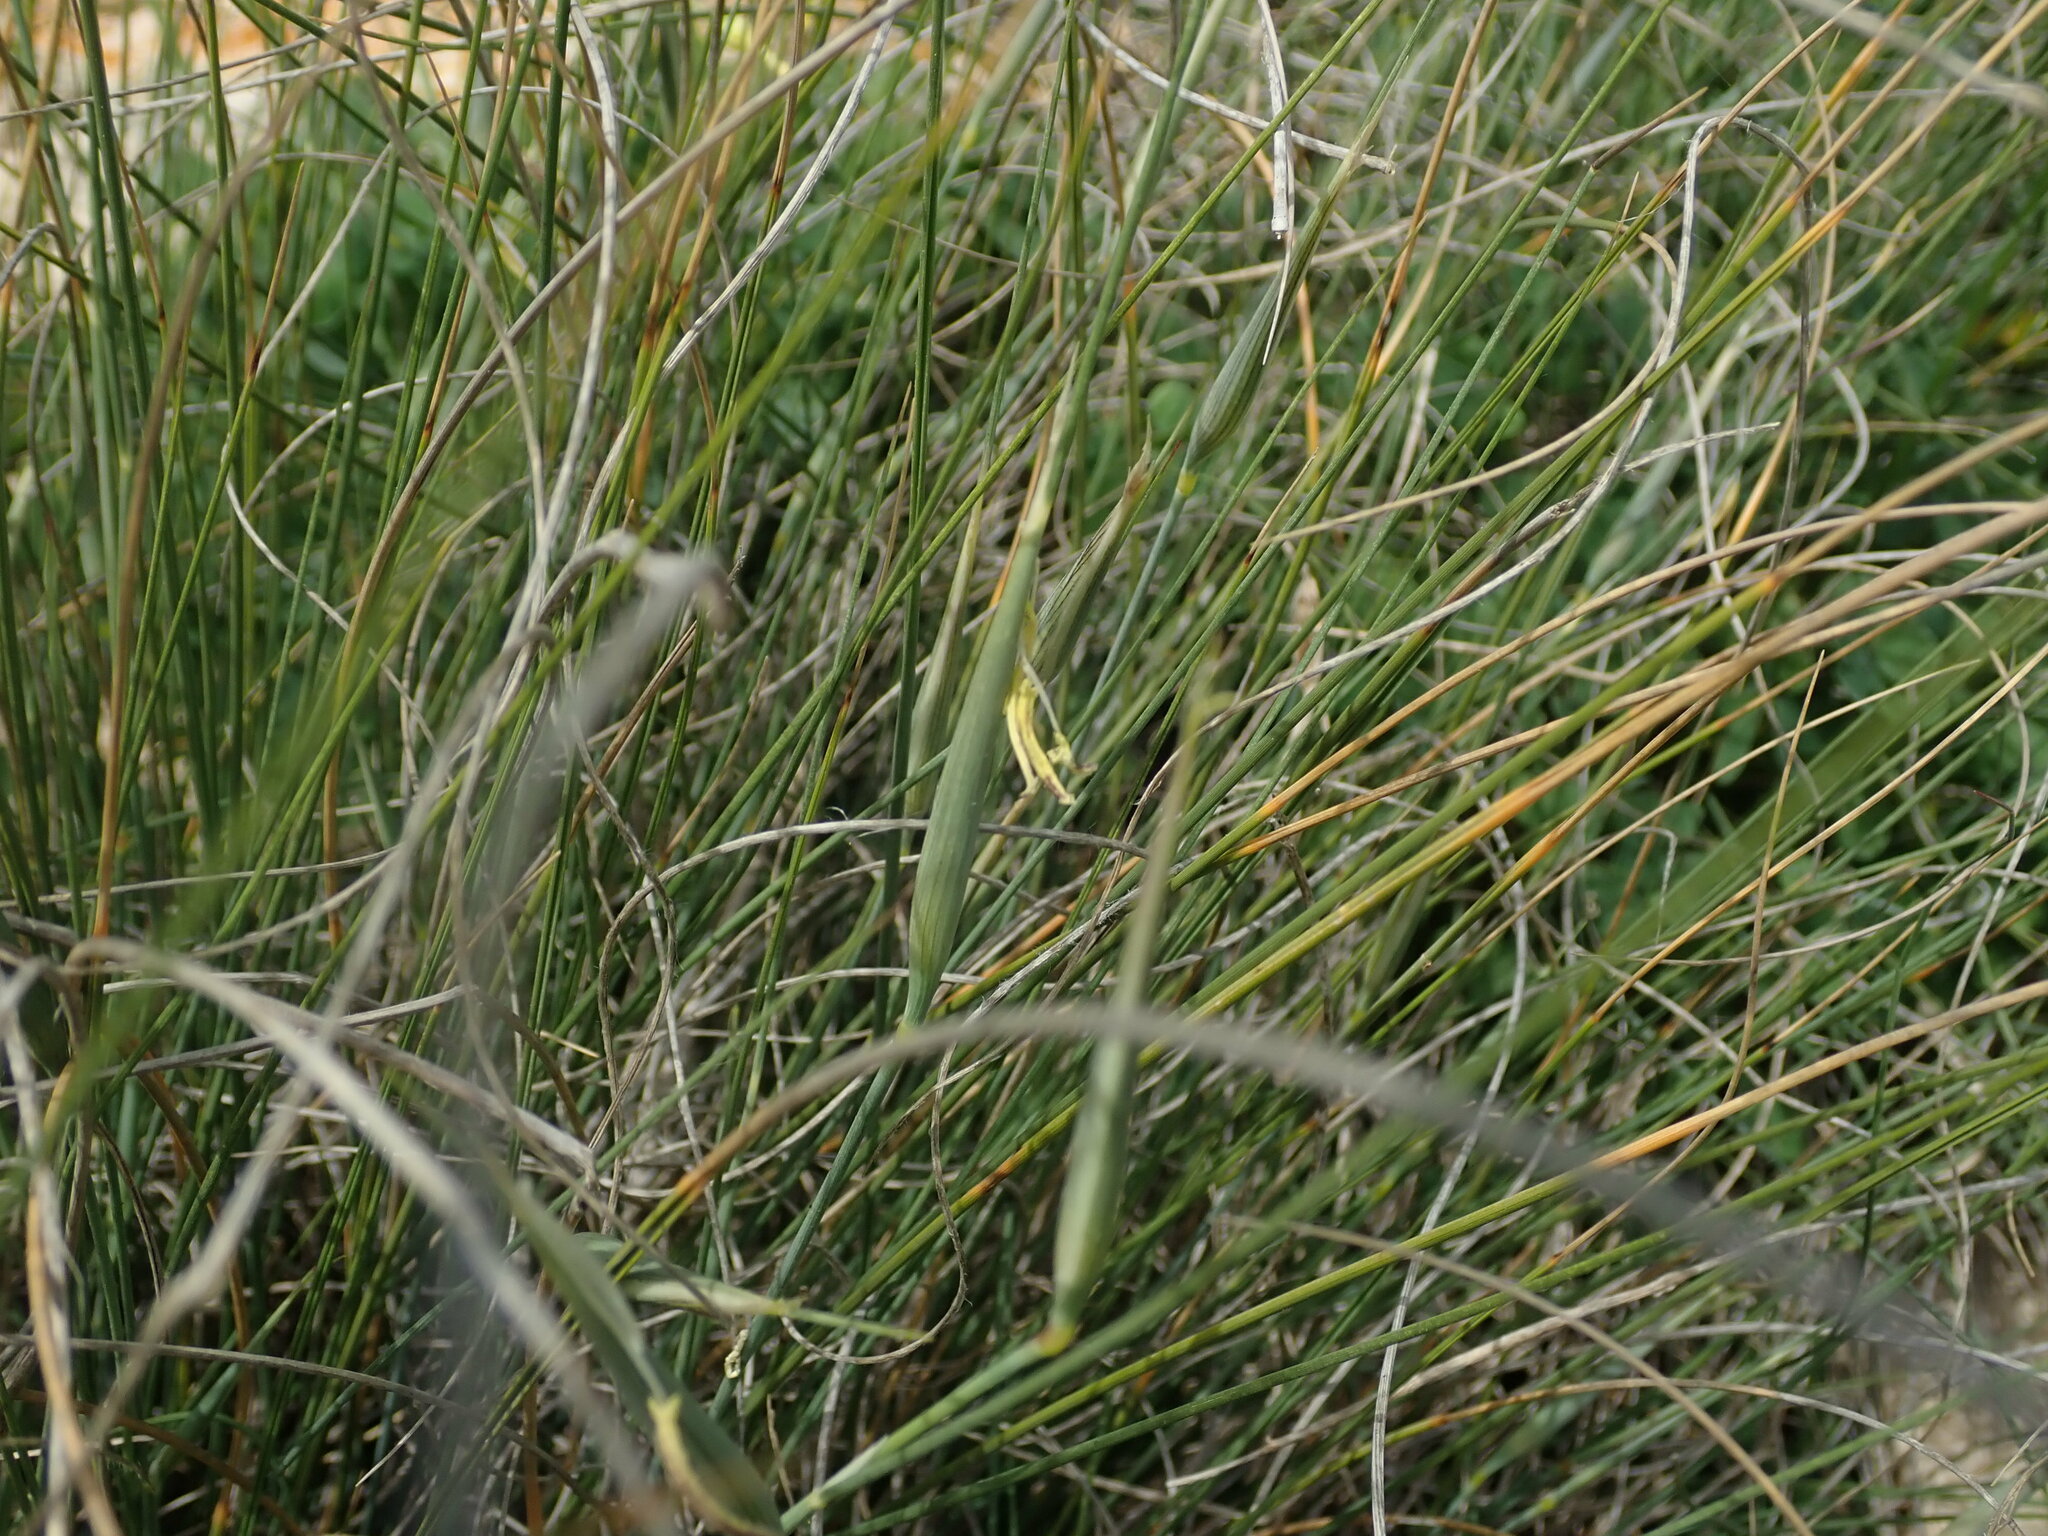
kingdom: Plantae
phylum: Tracheophyta
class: Liliopsida
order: Poales
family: Poaceae
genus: Lygeum
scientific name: Lygeum spartum
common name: Albardine
